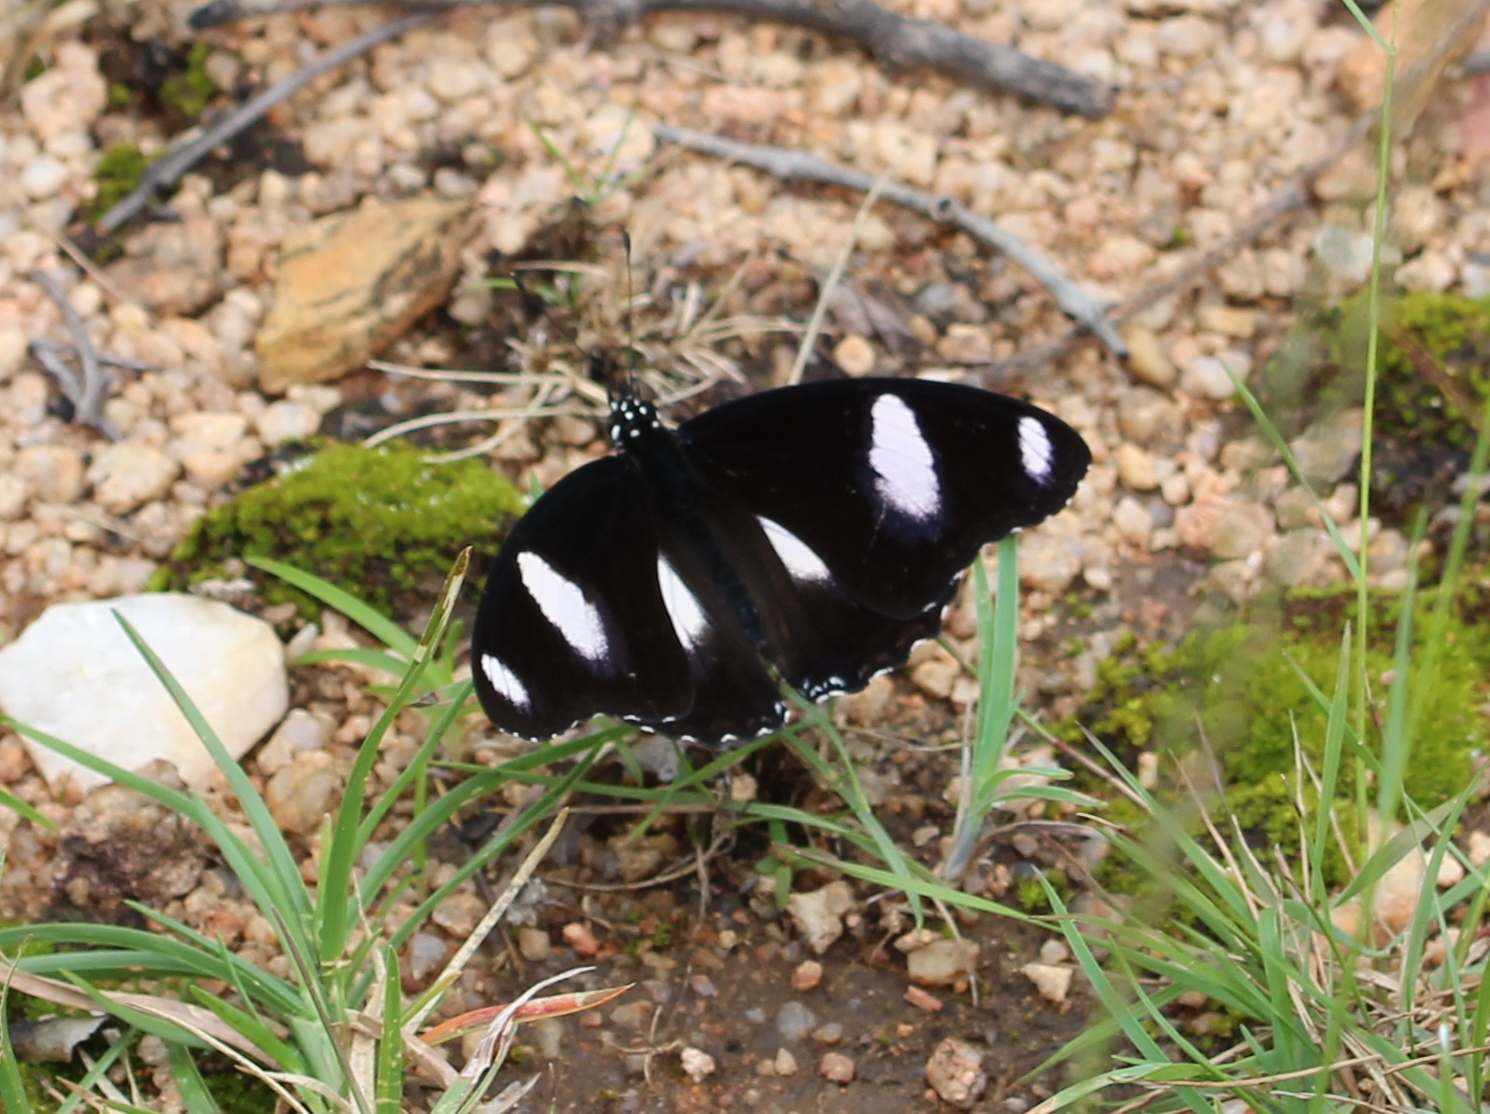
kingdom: Animalia
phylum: Arthropoda
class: Insecta
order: Lepidoptera
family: Nymphalidae
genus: Hypolimnas
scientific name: Hypolimnas misippus
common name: False plain tiger
